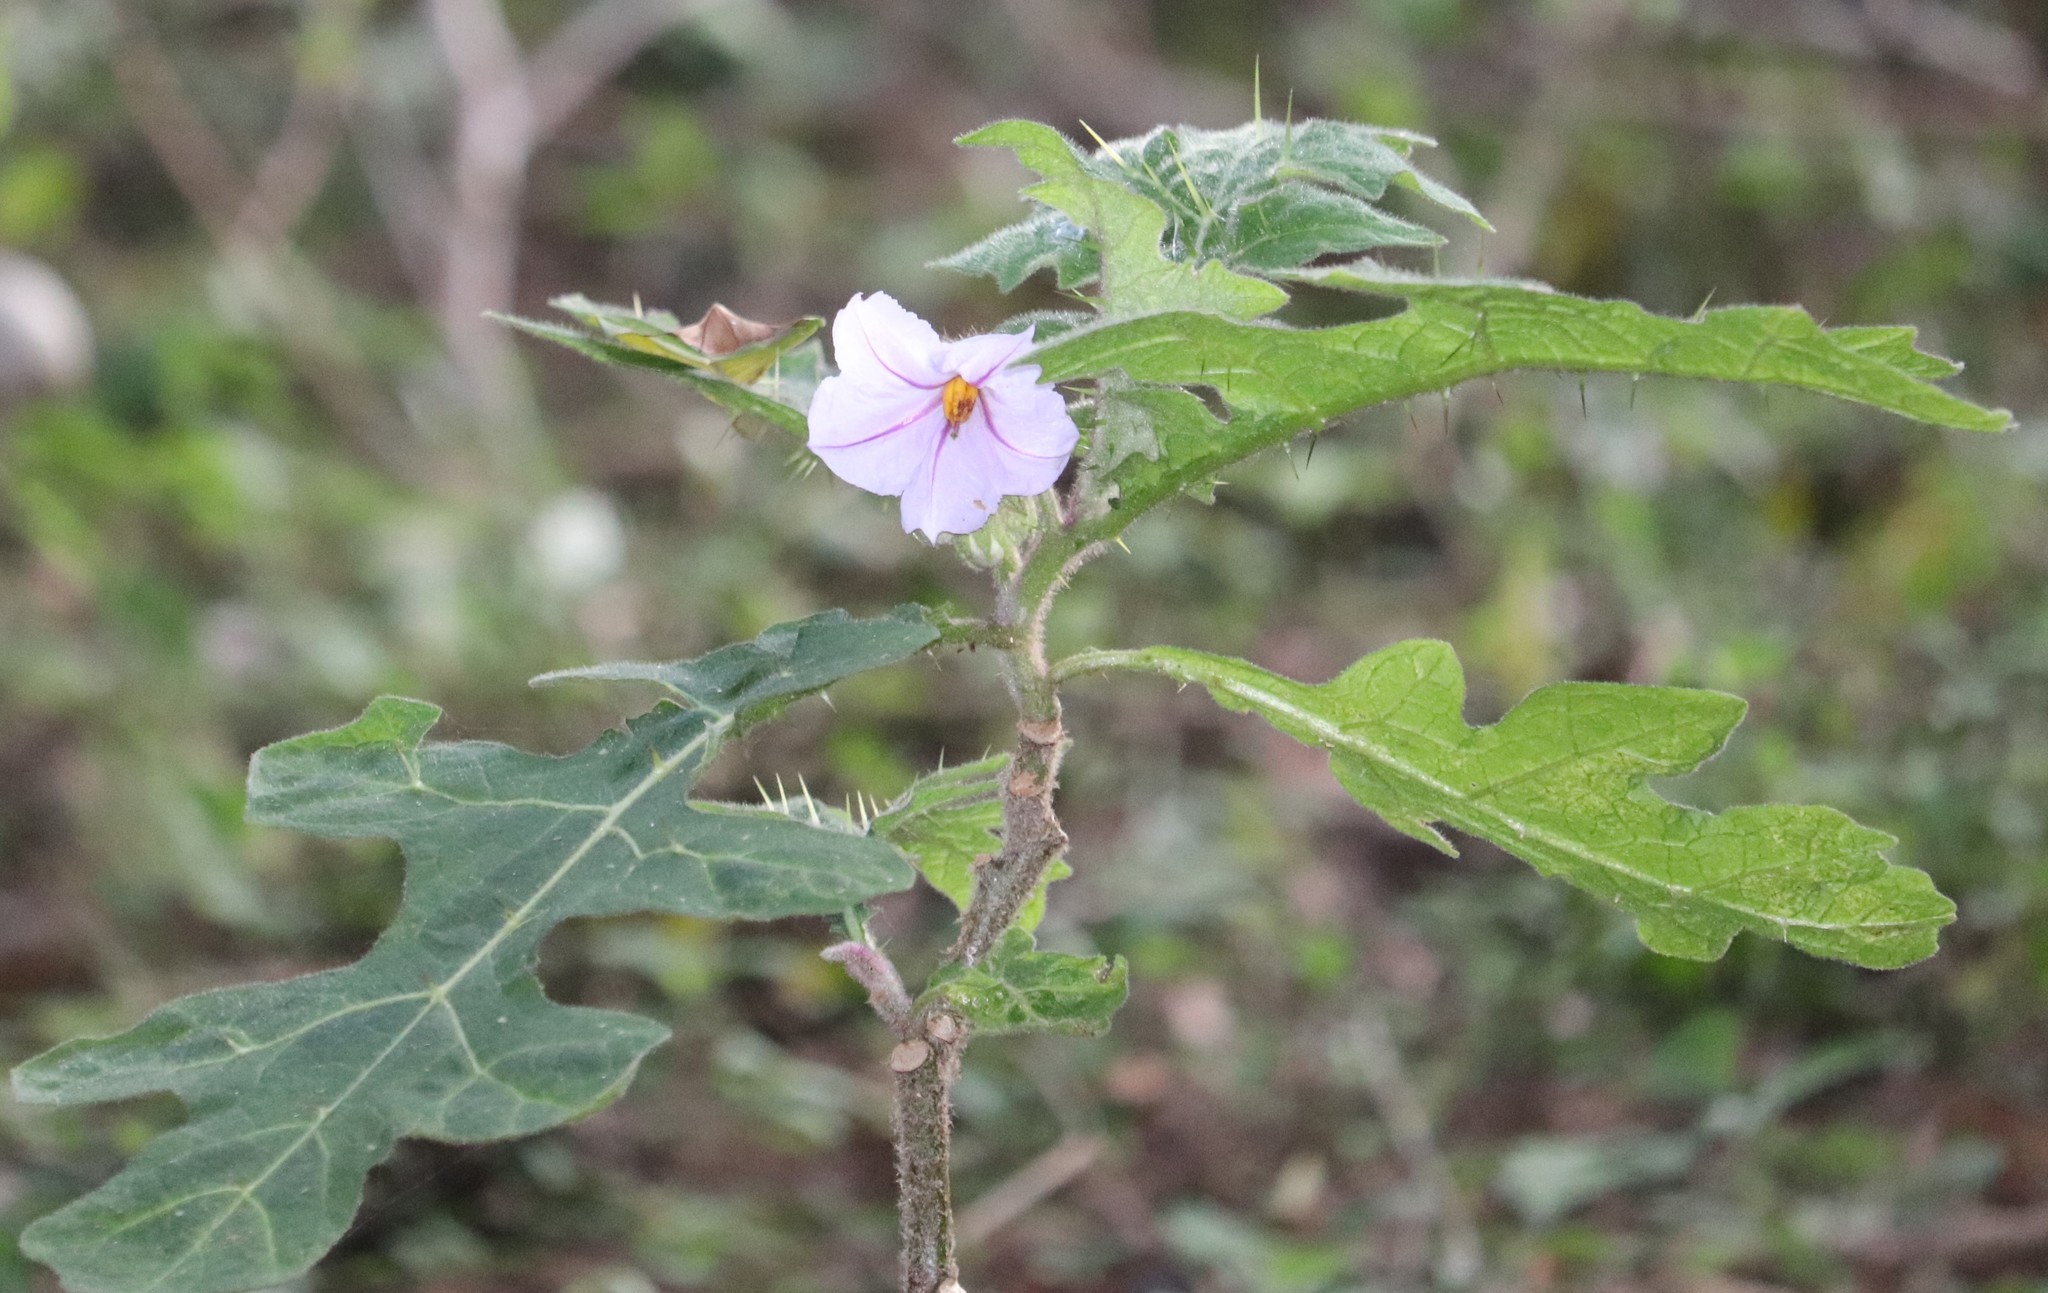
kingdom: Plantae
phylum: Tracheophyta
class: Magnoliopsida
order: Solanales
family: Solanaceae
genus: Solanum
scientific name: Solanum umtuma
